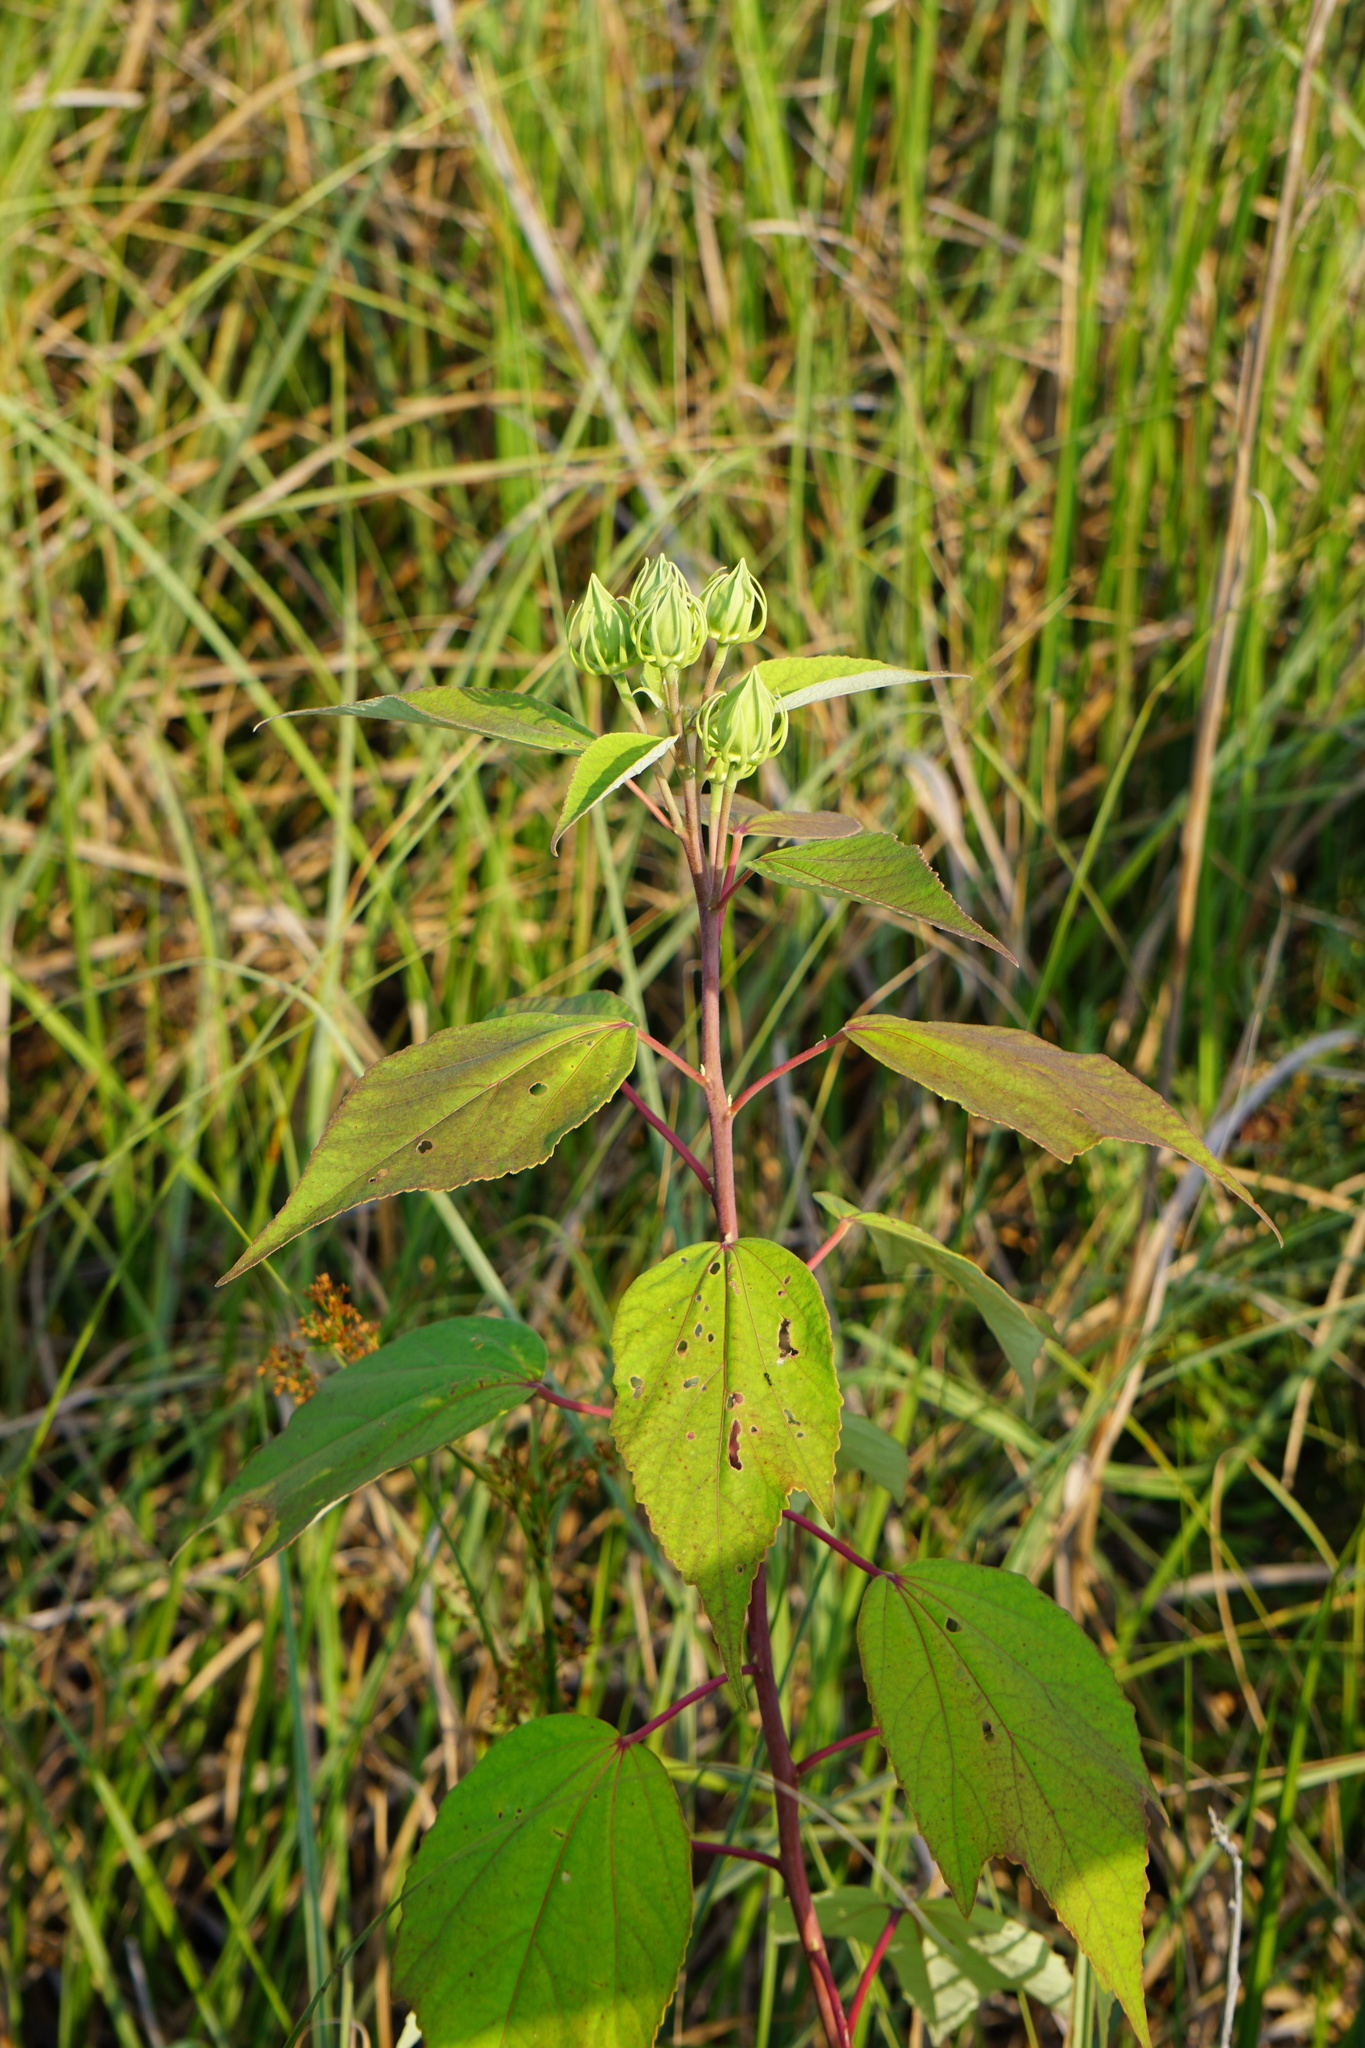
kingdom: Plantae
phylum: Tracheophyta
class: Magnoliopsida
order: Malvales
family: Malvaceae
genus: Hibiscus
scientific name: Hibiscus moscheutos
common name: Common rose-mallow
